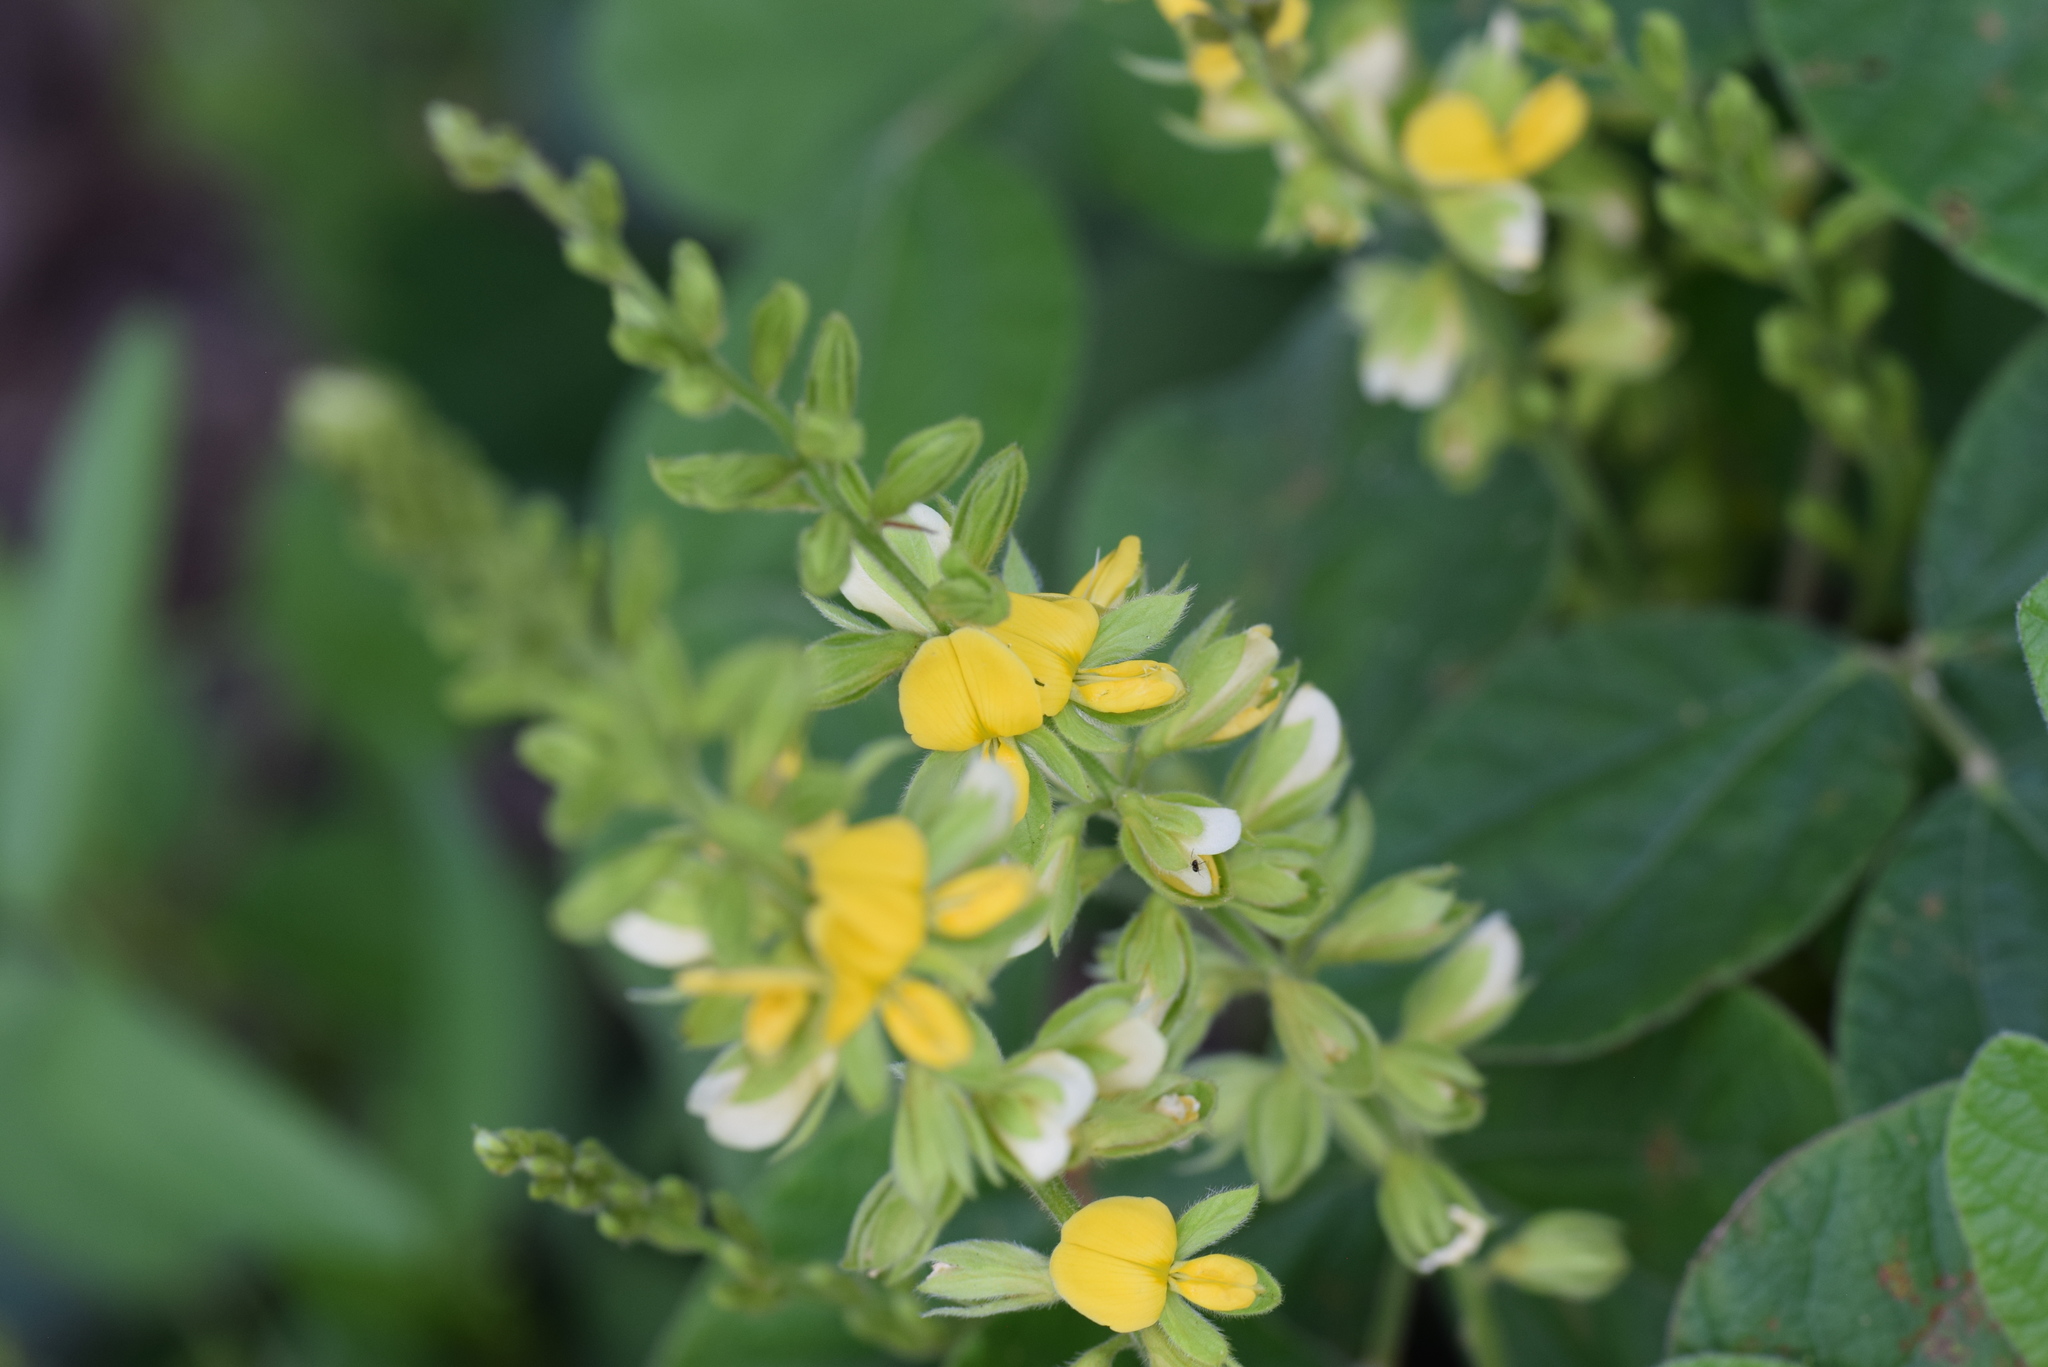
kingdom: Plantae
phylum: Tracheophyta
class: Magnoliopsida
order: Fabales
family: Fabaceae
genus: Rhynchosia
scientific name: Rhynchosia latifolia
